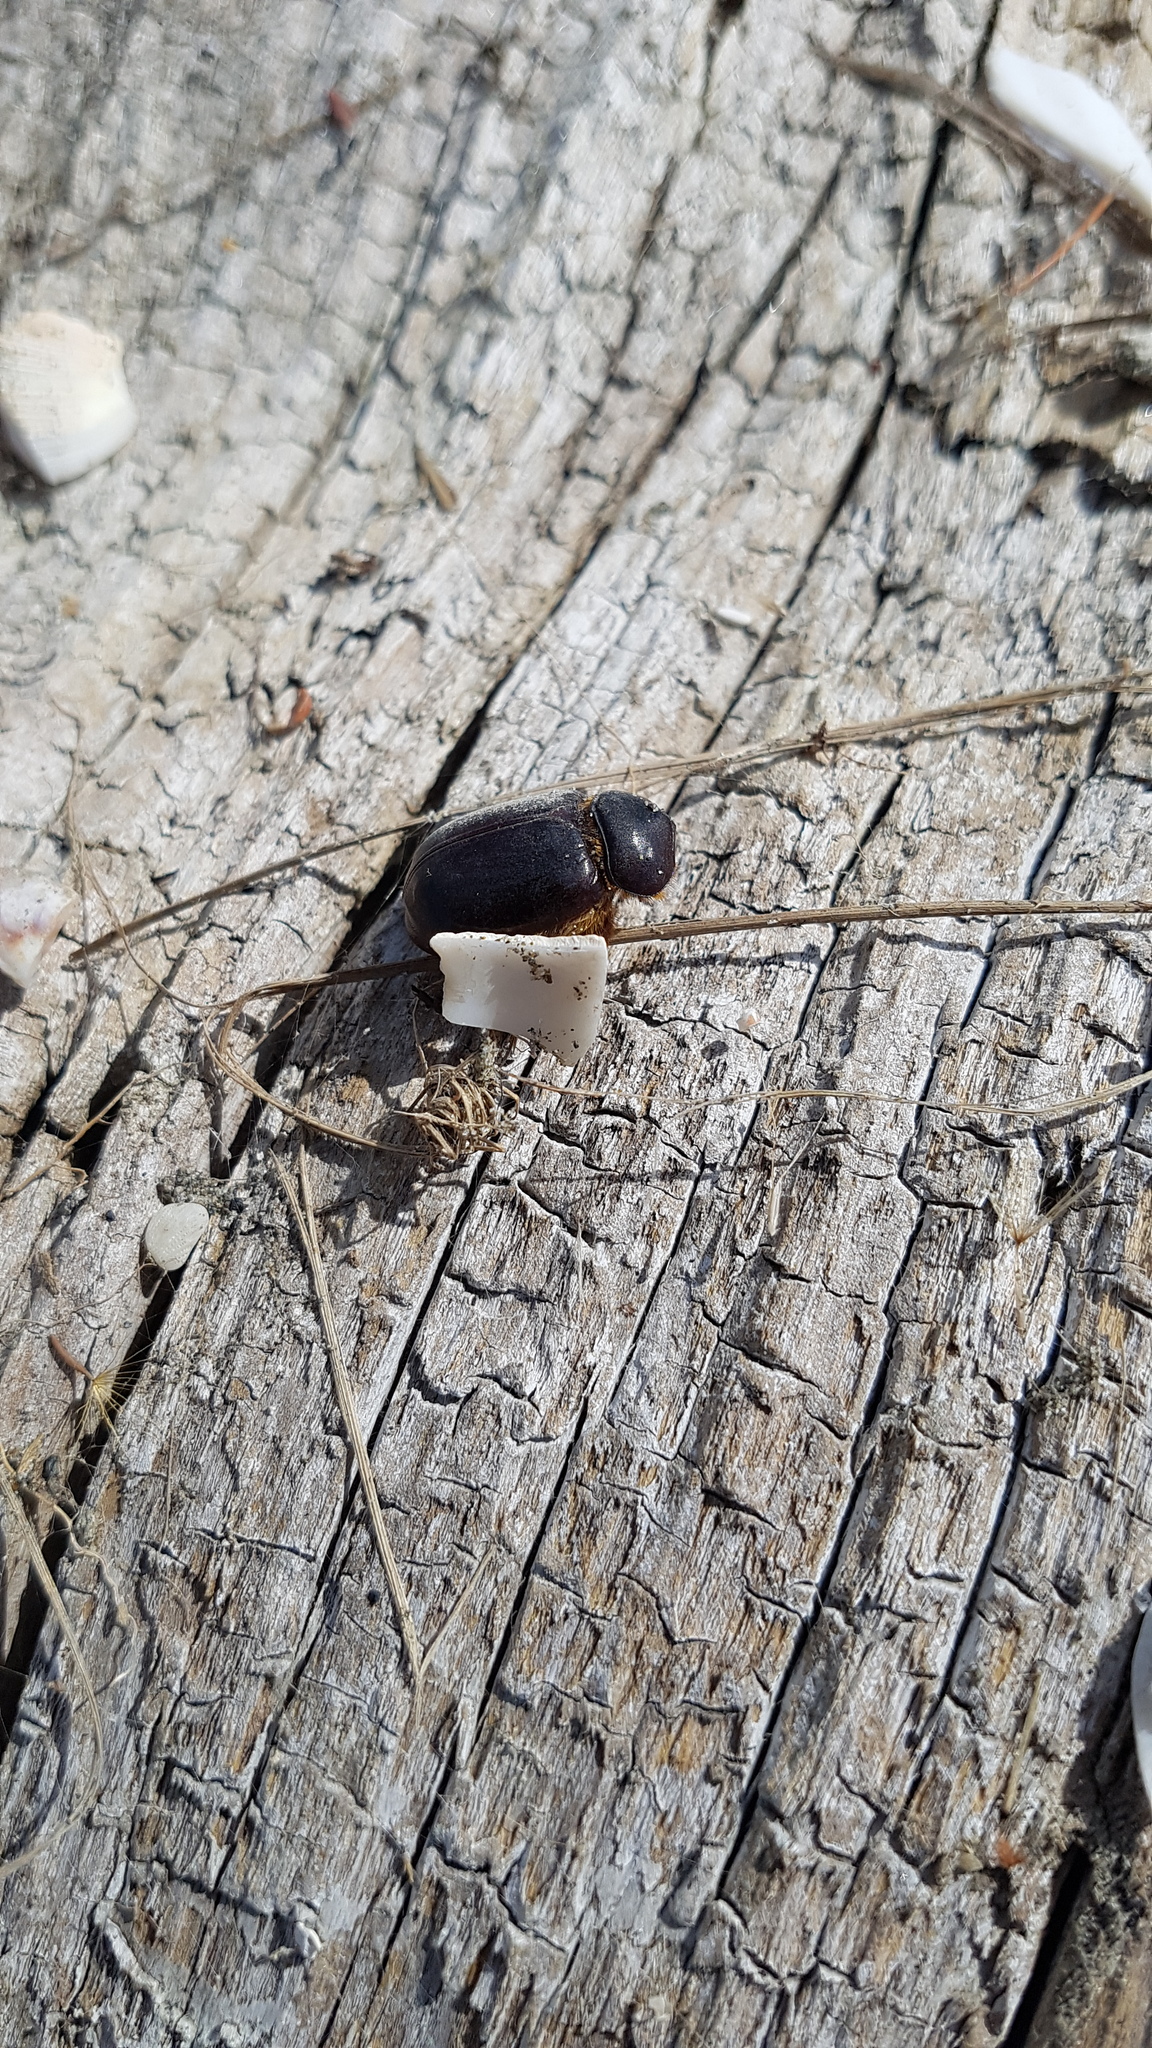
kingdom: Animalia
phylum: Arthropoda
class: Insecta
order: Coleoptera
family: Scarabaeidae
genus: Pericoptus
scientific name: Pericoptus truncatus
